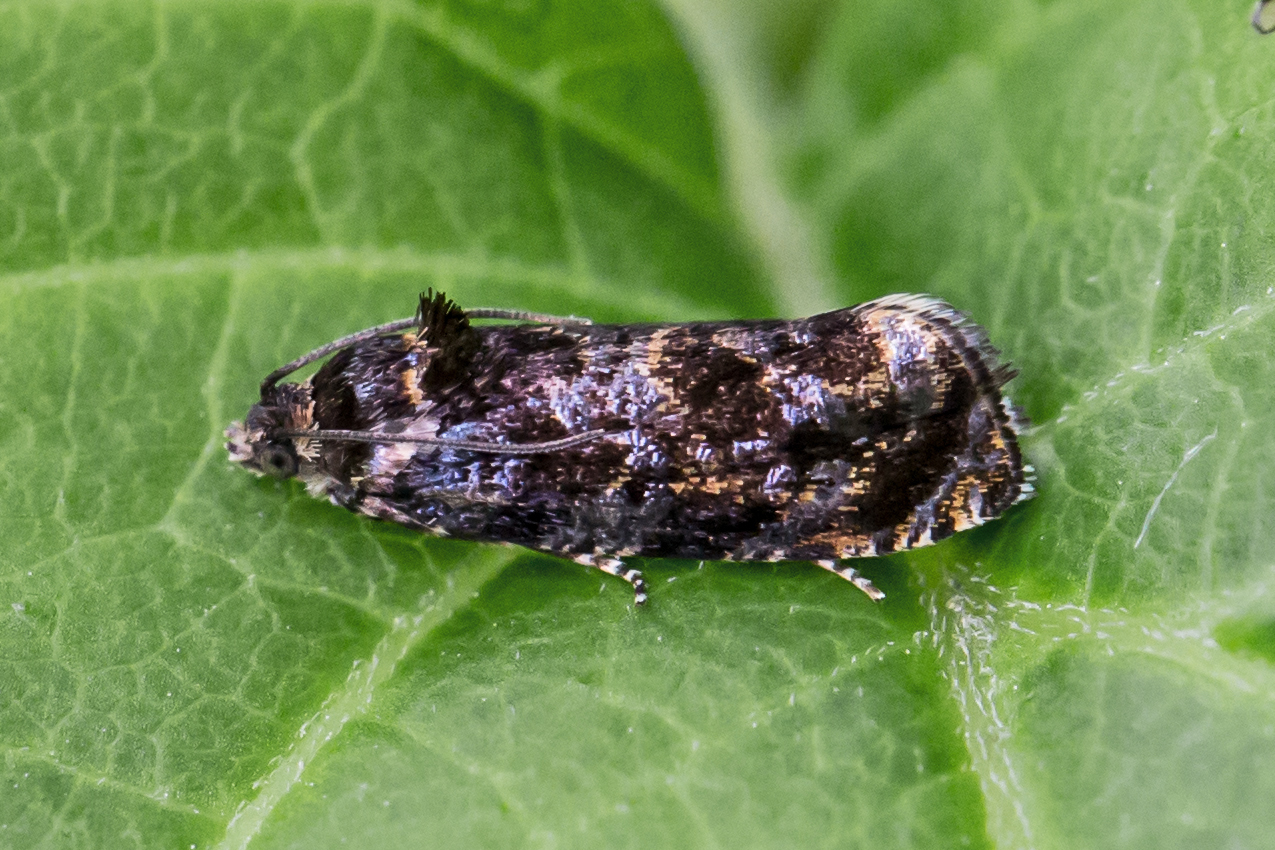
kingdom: Animalia
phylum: Arthropoda
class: Insecta
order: Lepidoptera
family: Tortricidae
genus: Pristerognatha
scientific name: Pristerognatha agilana
